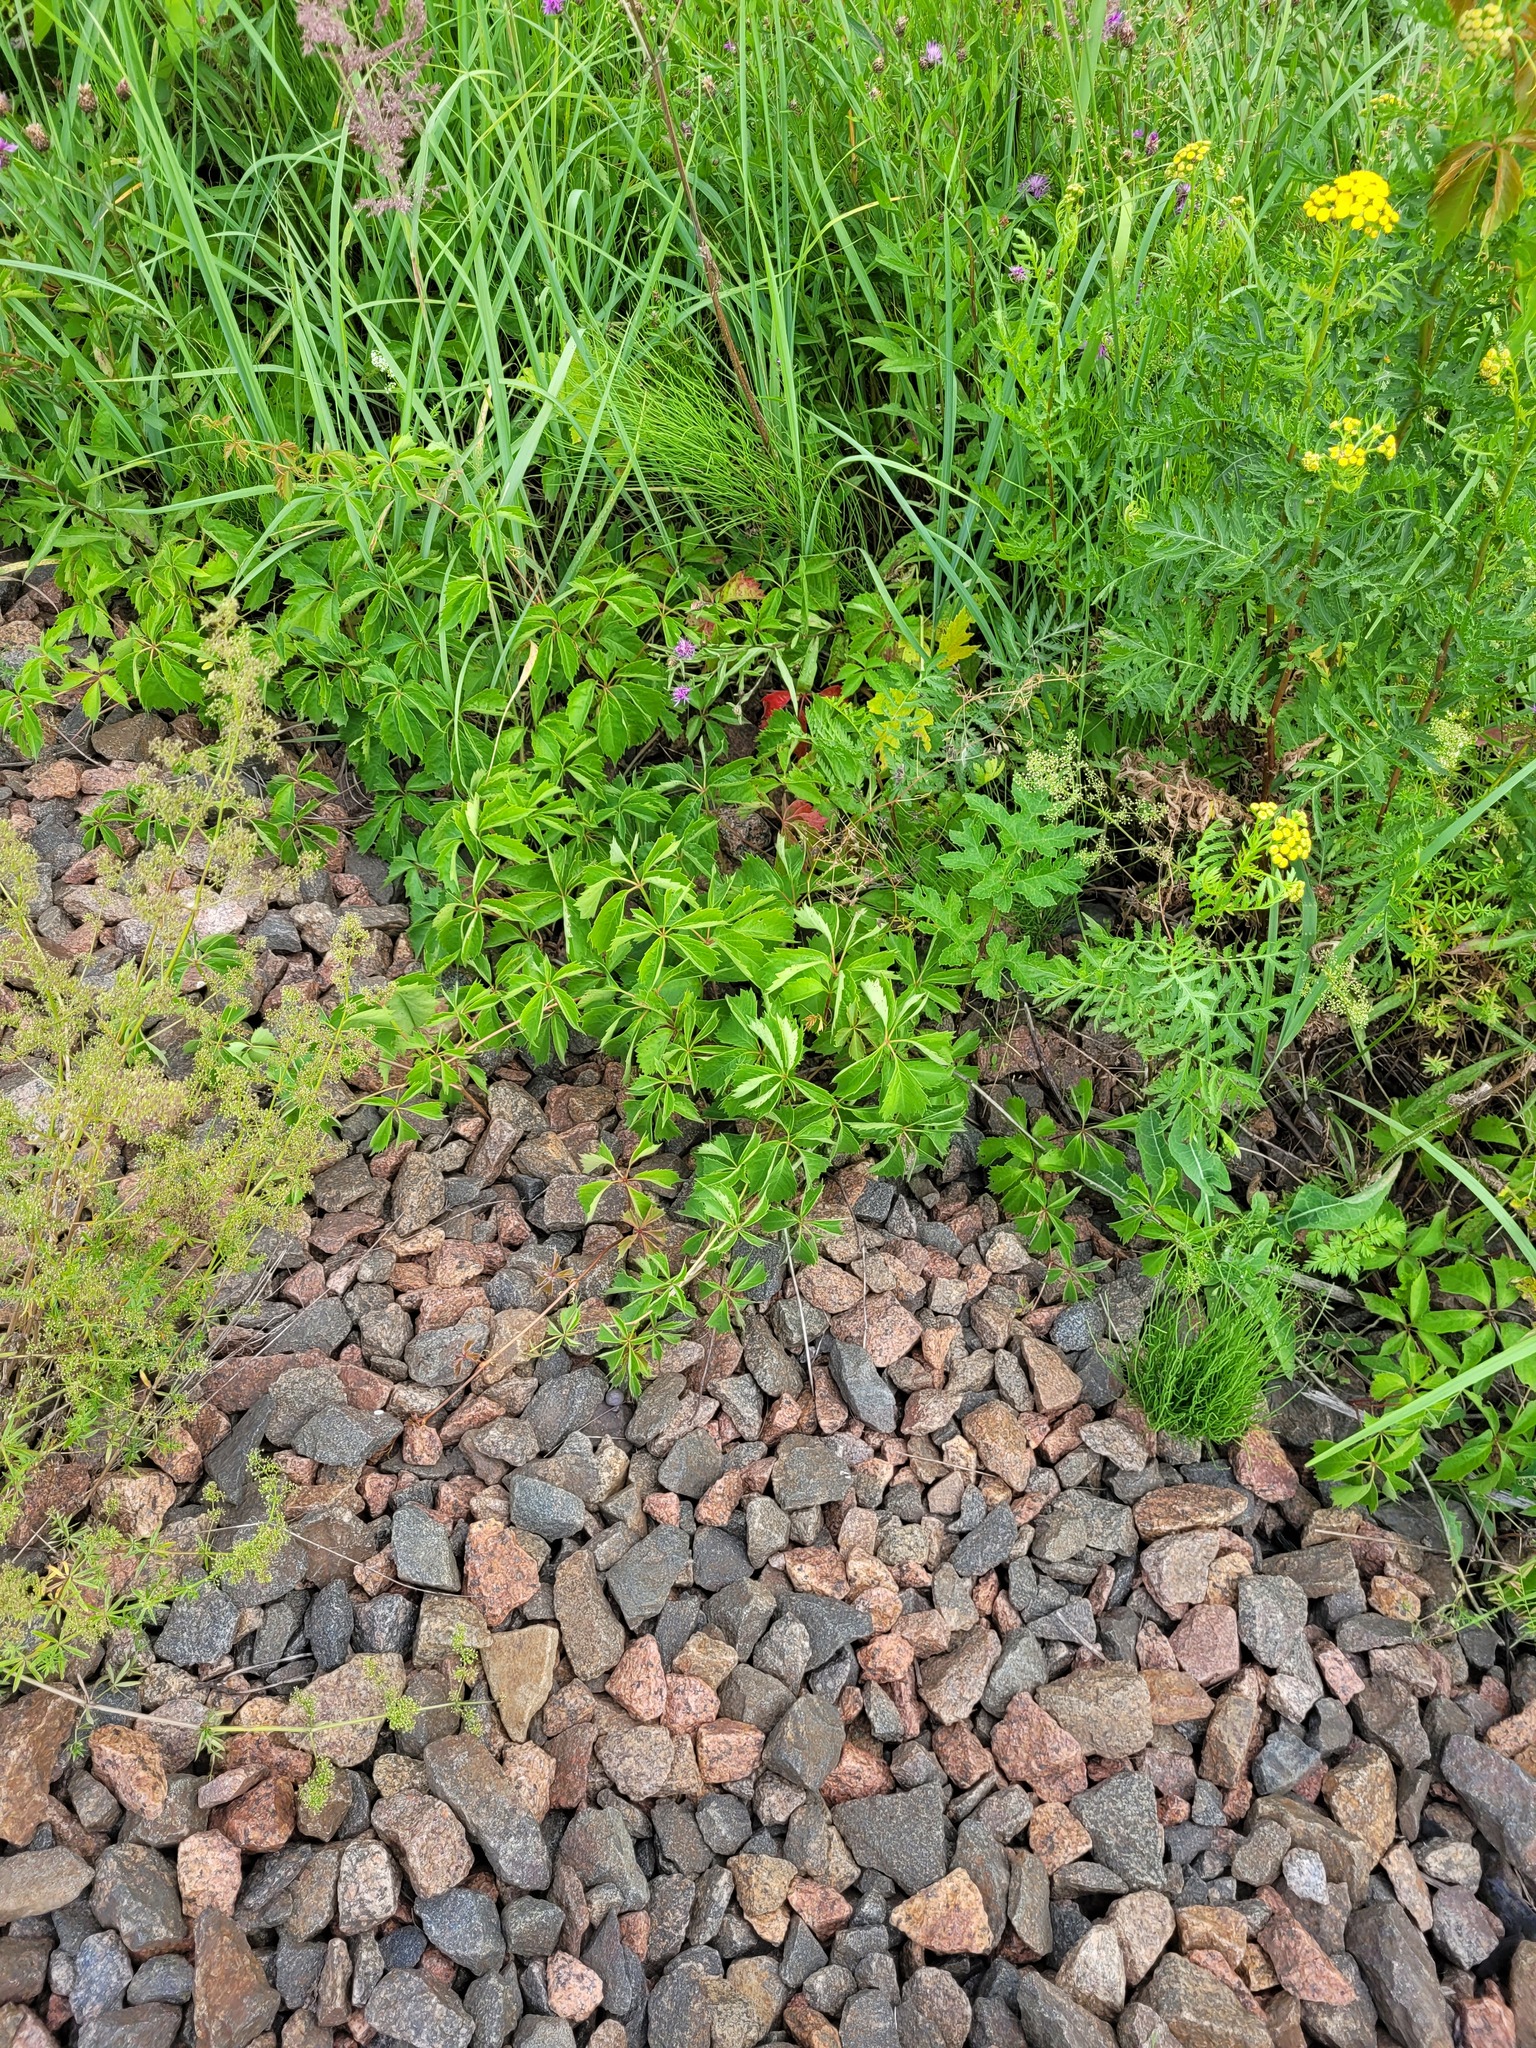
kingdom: Plantae
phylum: Tracheophyta
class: Magnoliopsida
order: Vitales
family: Vitaceae
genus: Parthenocissus
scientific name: Parthenocissus inserta
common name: False virginia-creeper
